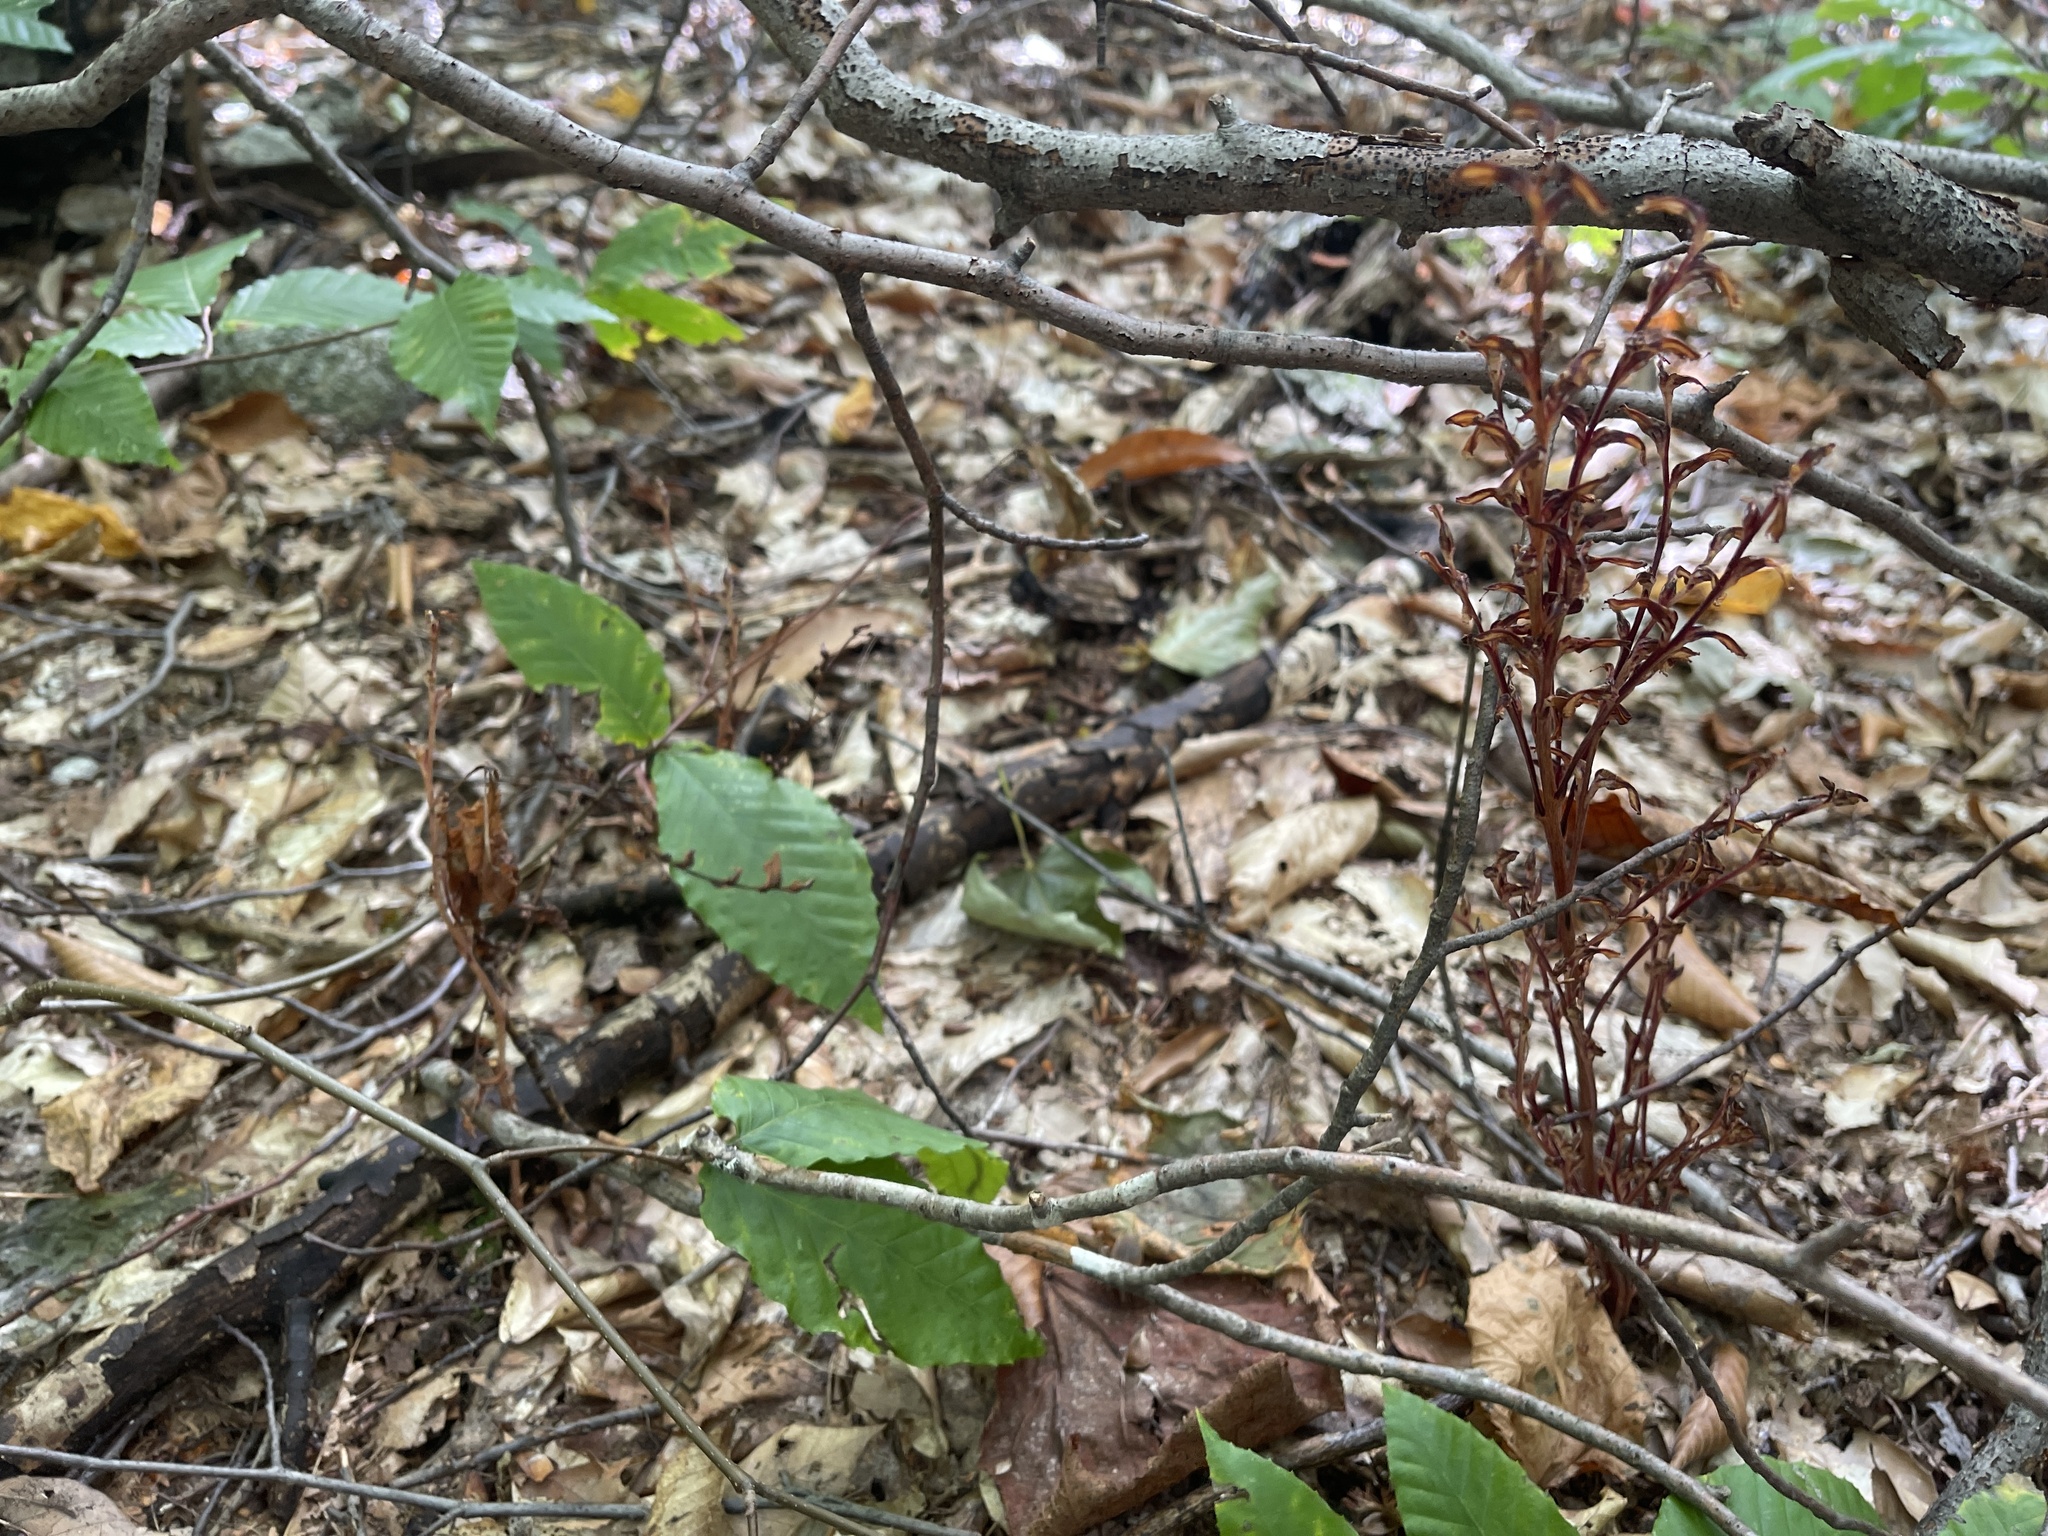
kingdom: Plantae
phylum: Tracheophyta
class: Magnoliopsida
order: Lamiales
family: Orobanchaceae
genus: Epifagus
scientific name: Epifagus virginiana
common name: Beechdrops
